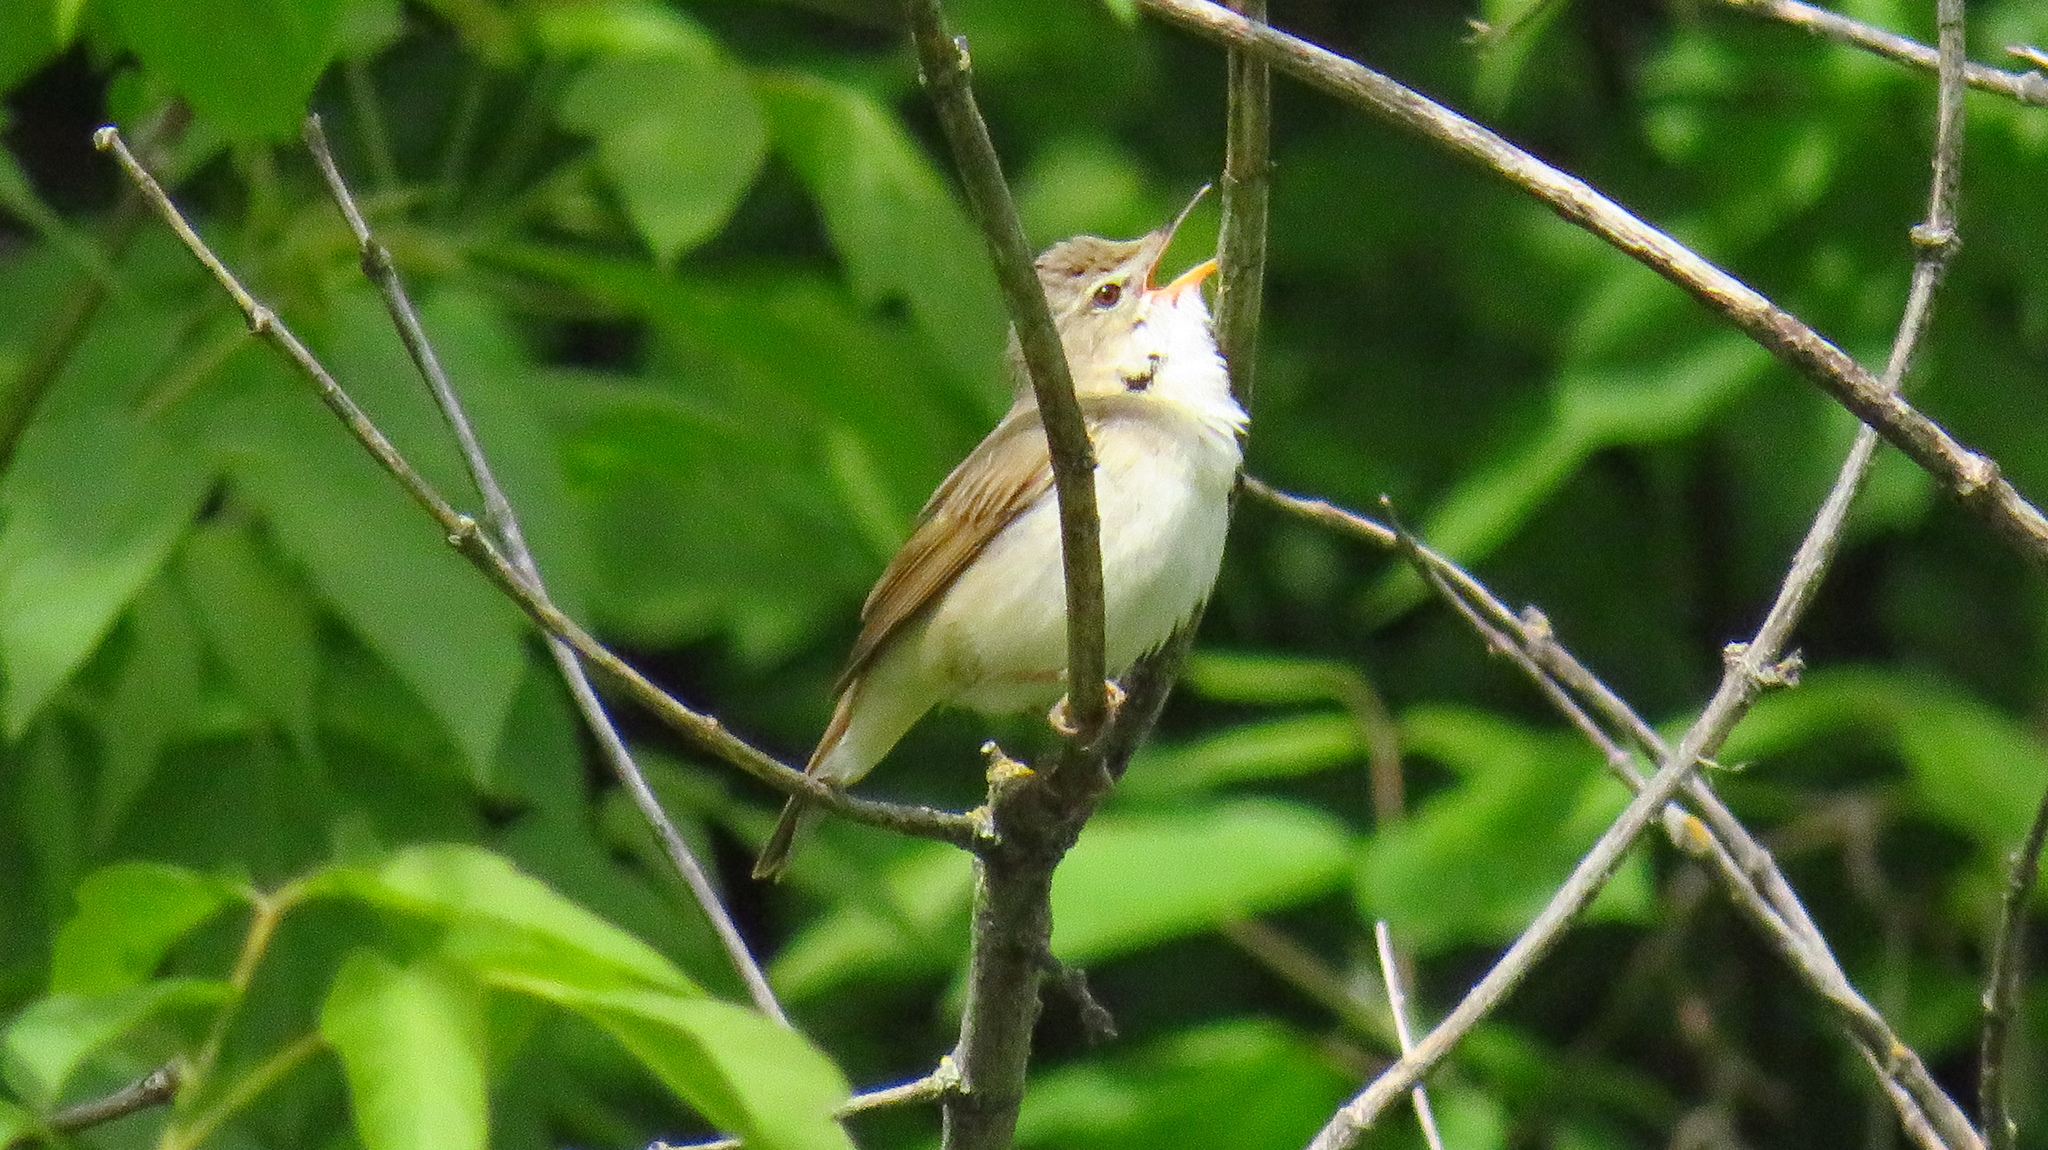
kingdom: Animalia
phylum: Chordata
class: Aves
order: Passeriformes
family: Acrocephalidae
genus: Acrocephalus
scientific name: Acrocephalus dumetorum
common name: Blyth's reed warbler
